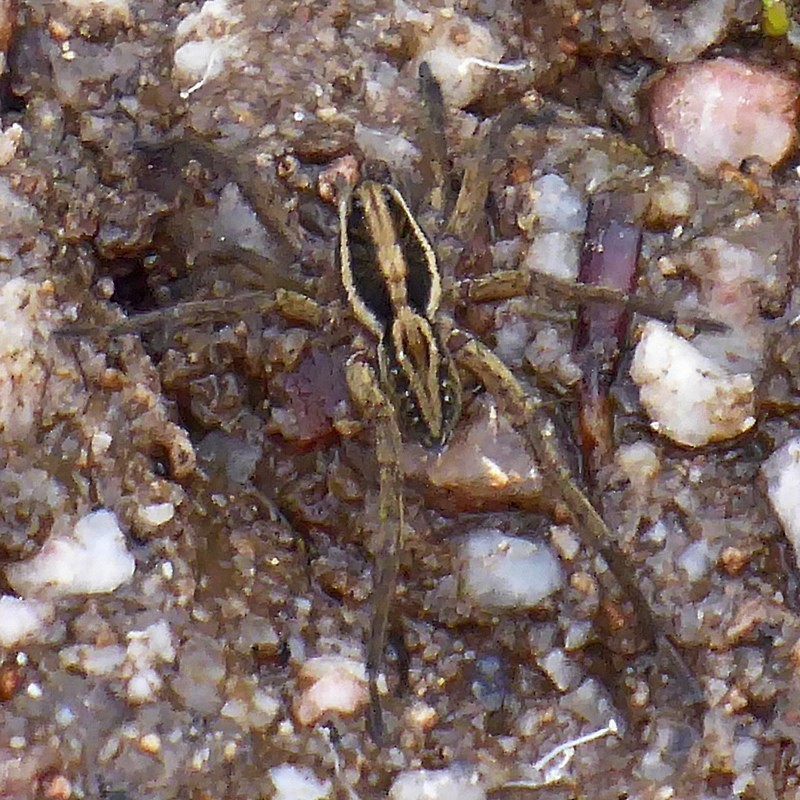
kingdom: Animalia
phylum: Arthropoda
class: Arachnida
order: Araneae
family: Lycosidae
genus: Venatrix
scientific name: Venatrix furcillata
